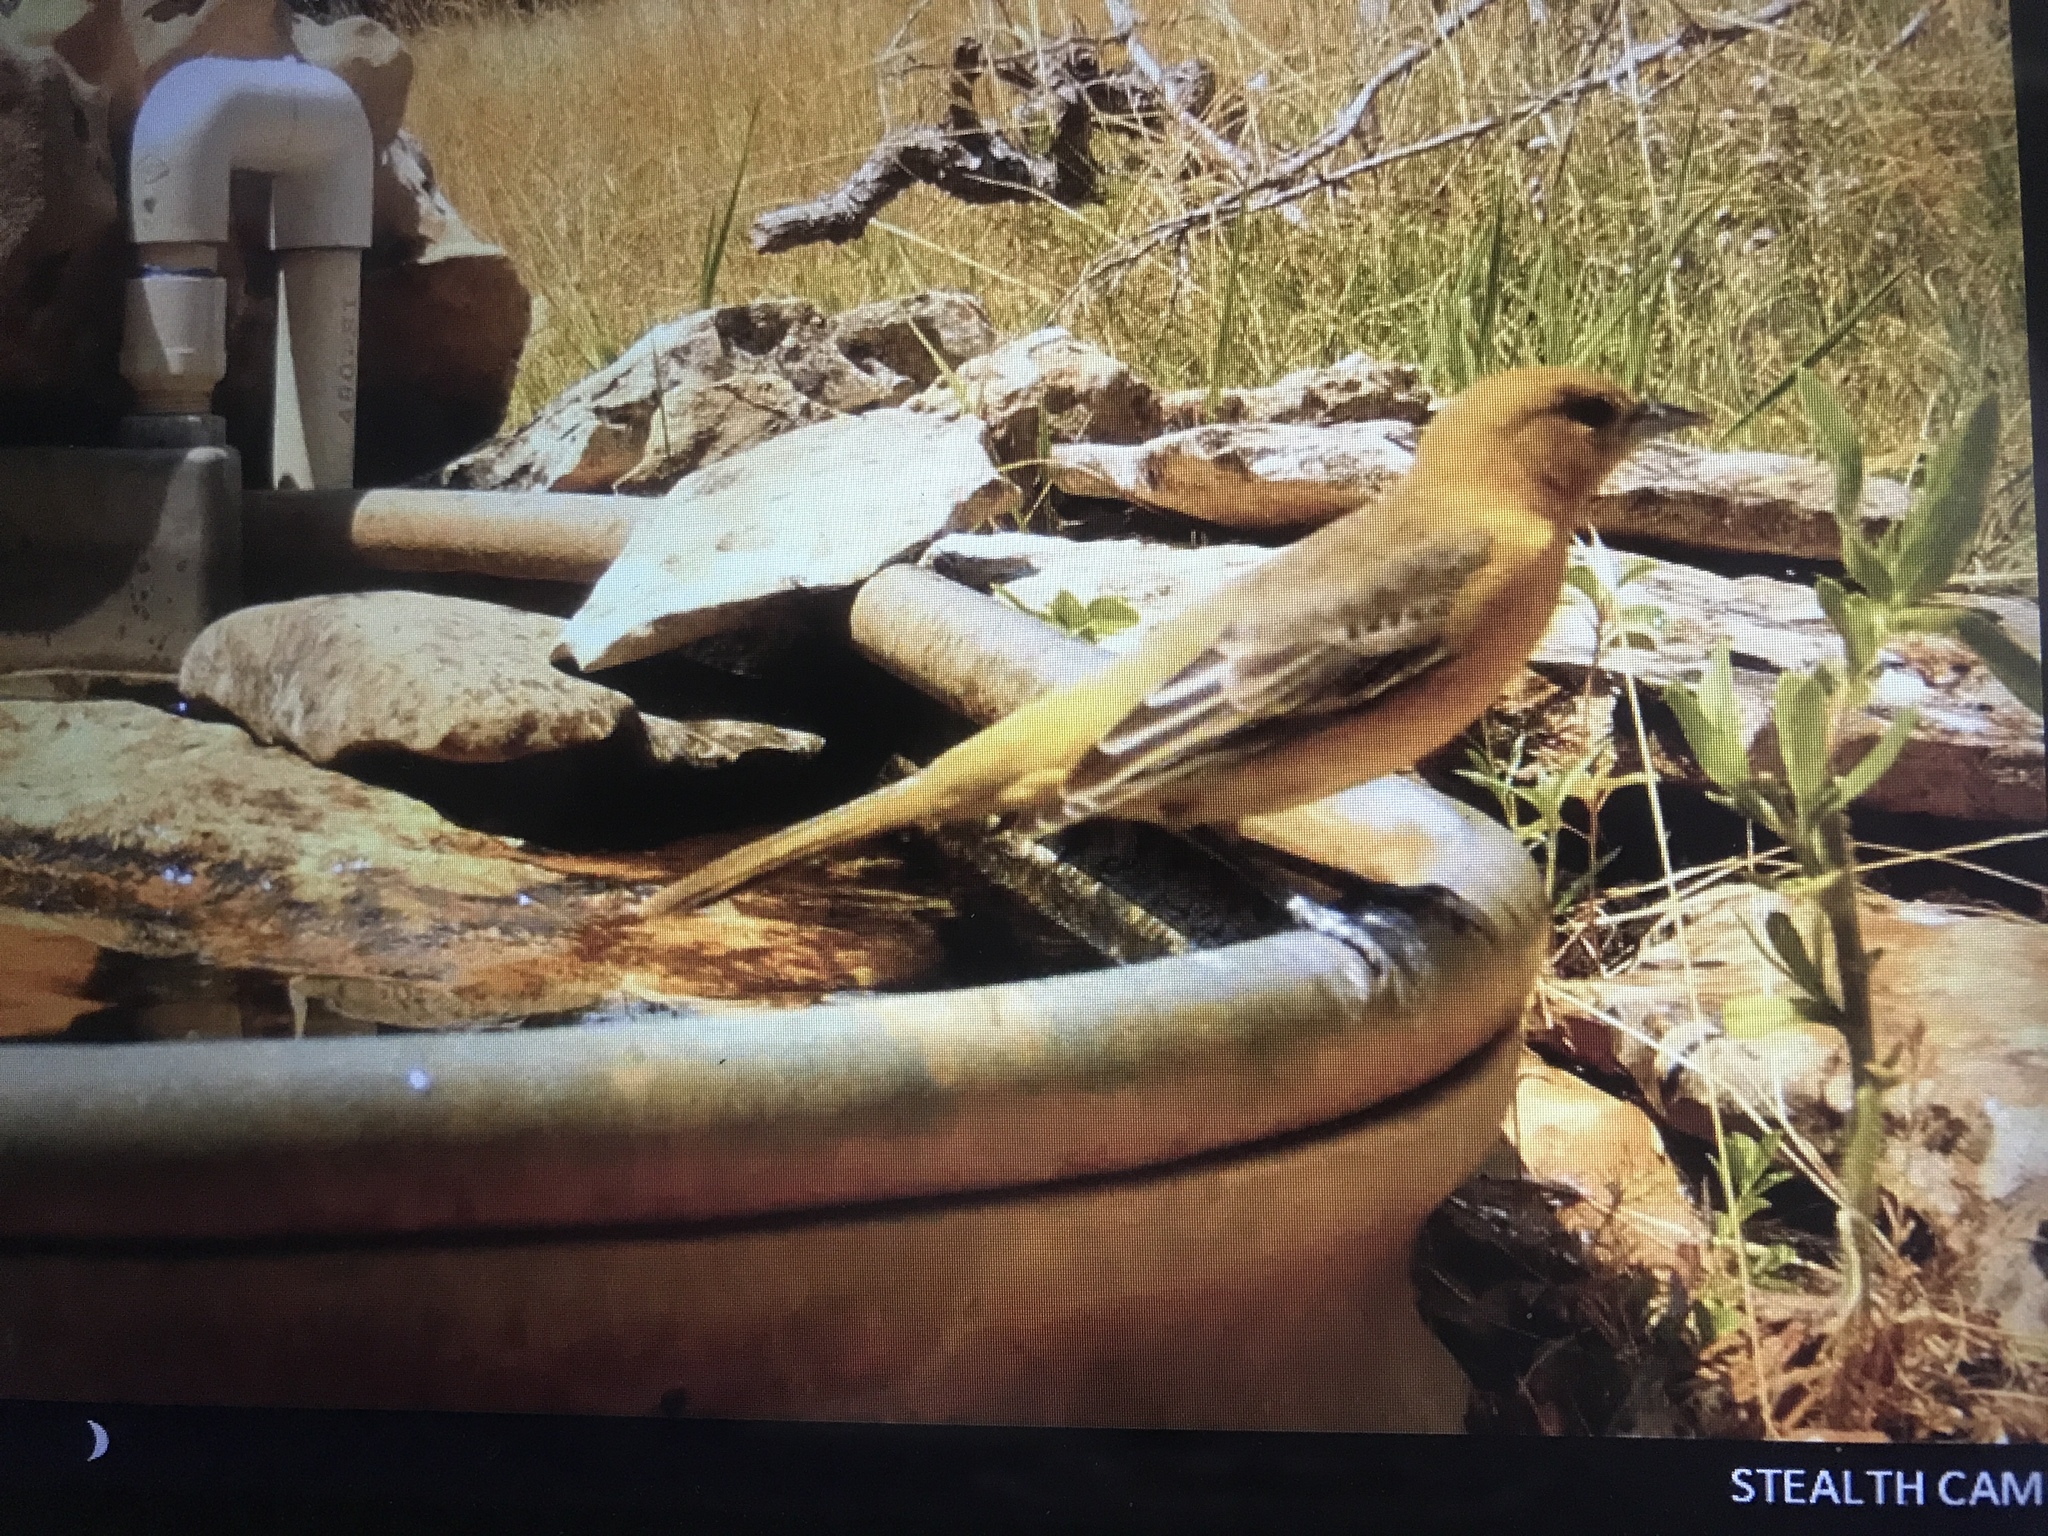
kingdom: Animalia
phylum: Chordata
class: Aves
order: Passeriformes
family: Icteridae
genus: Icterus
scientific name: Icterus spurius
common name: Orchard oriole
